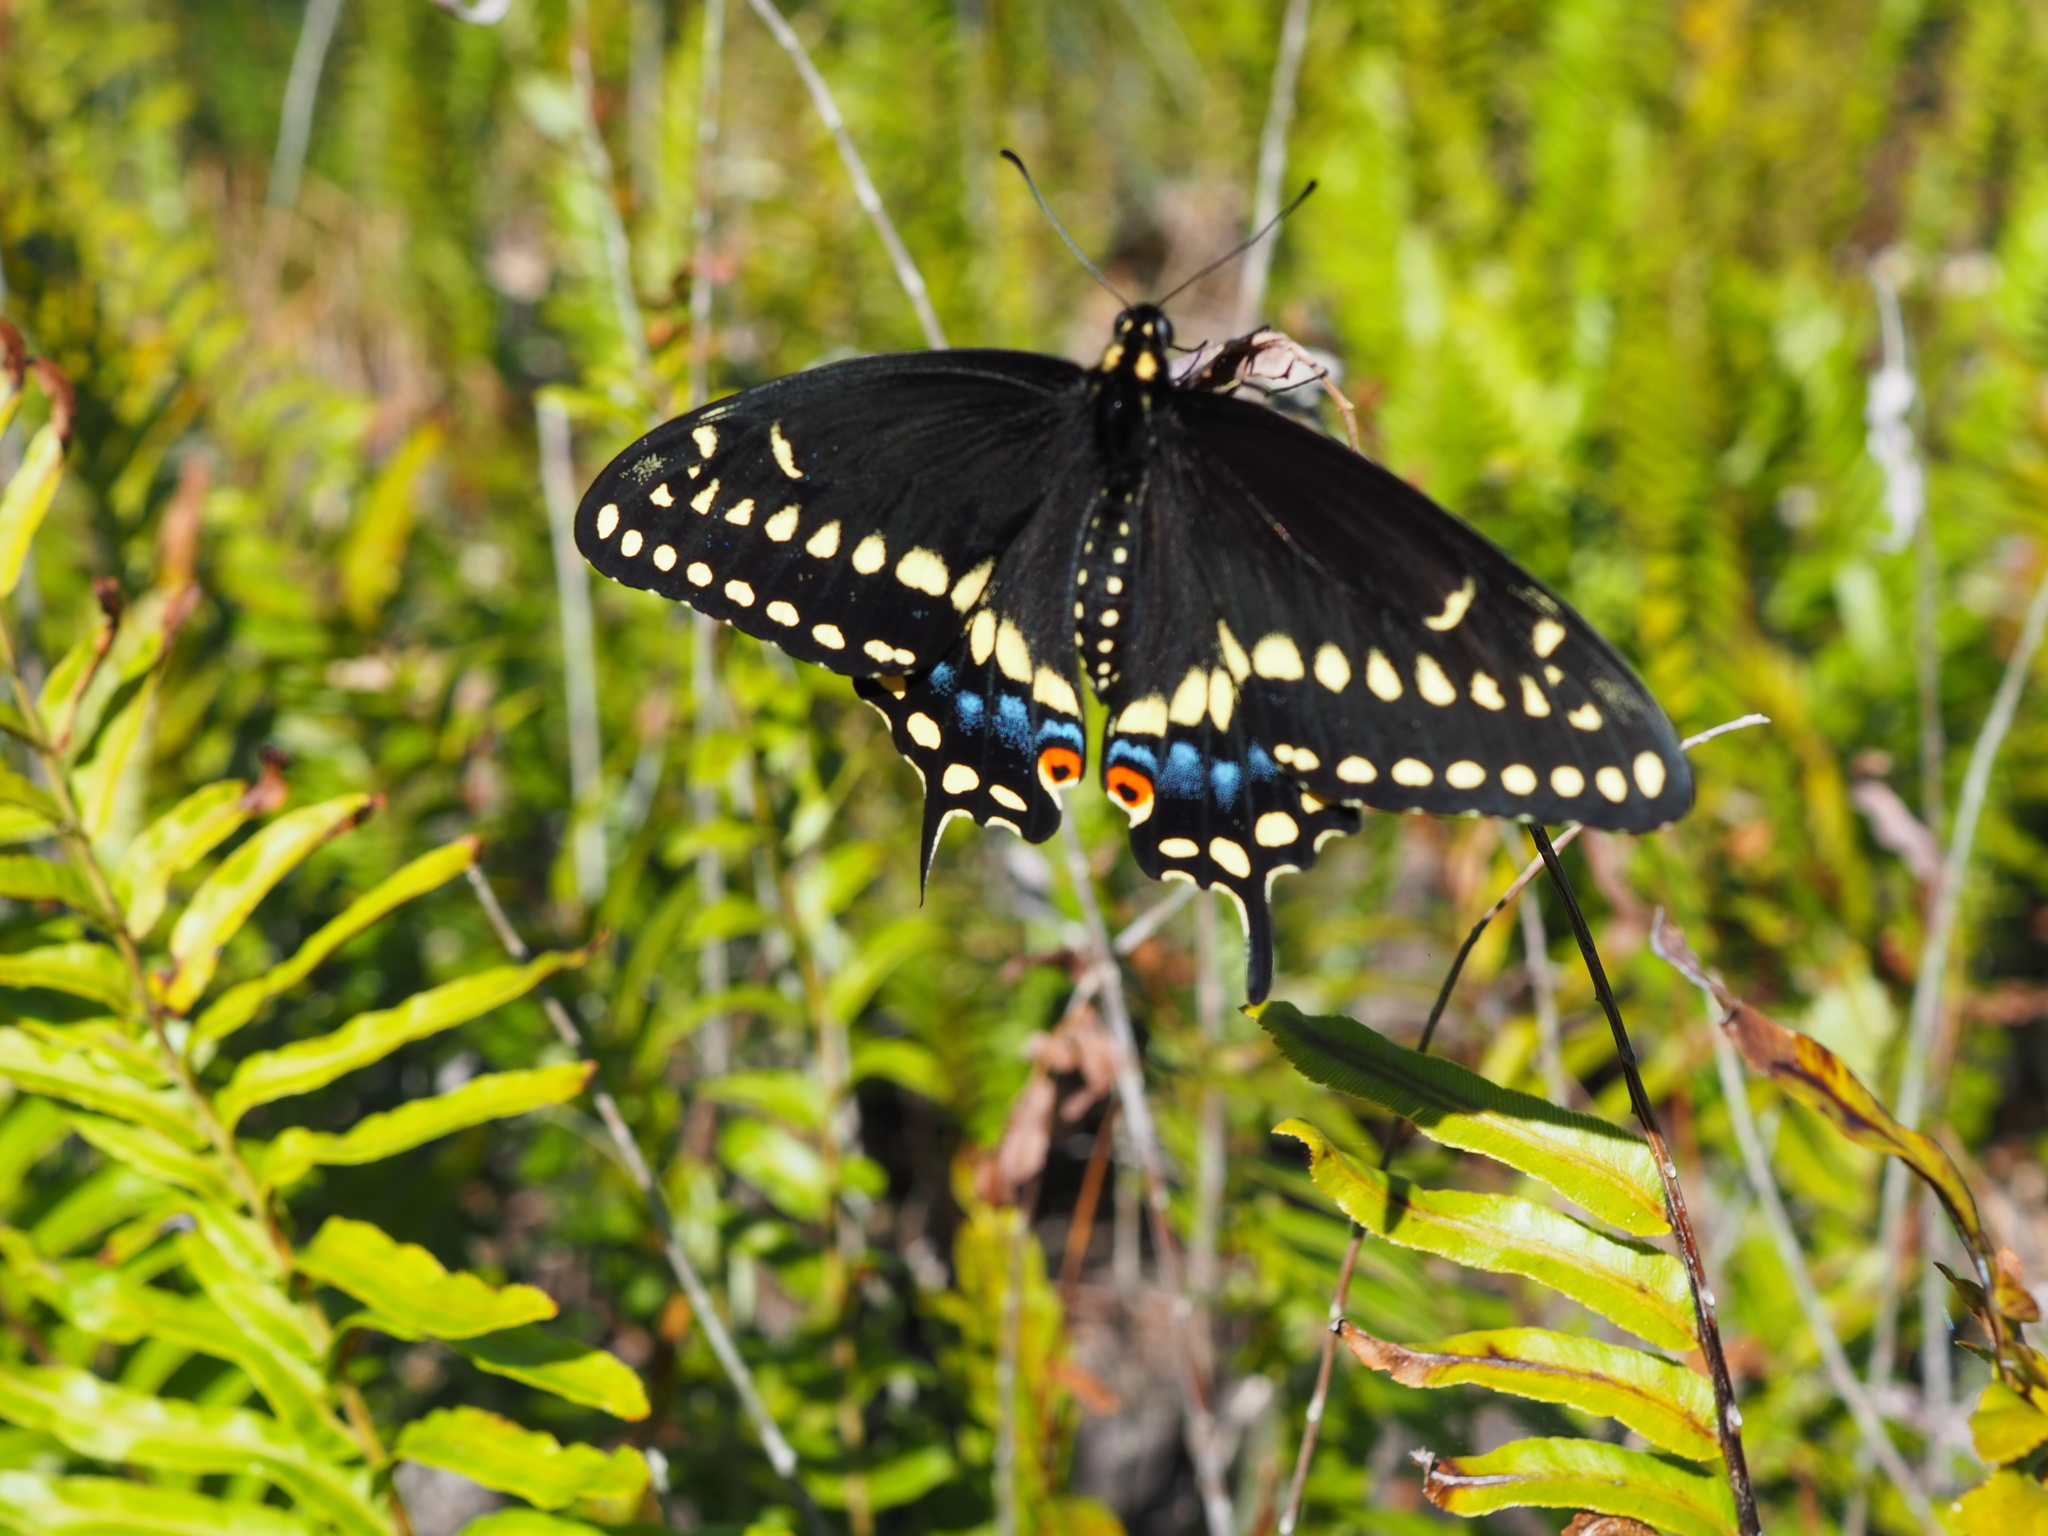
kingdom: Animalia
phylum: Arthropoda
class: Insecta
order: Lepidoptera
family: Papilionidae
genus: Papilio
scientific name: Papilio polyxenes
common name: Black swallowtail
